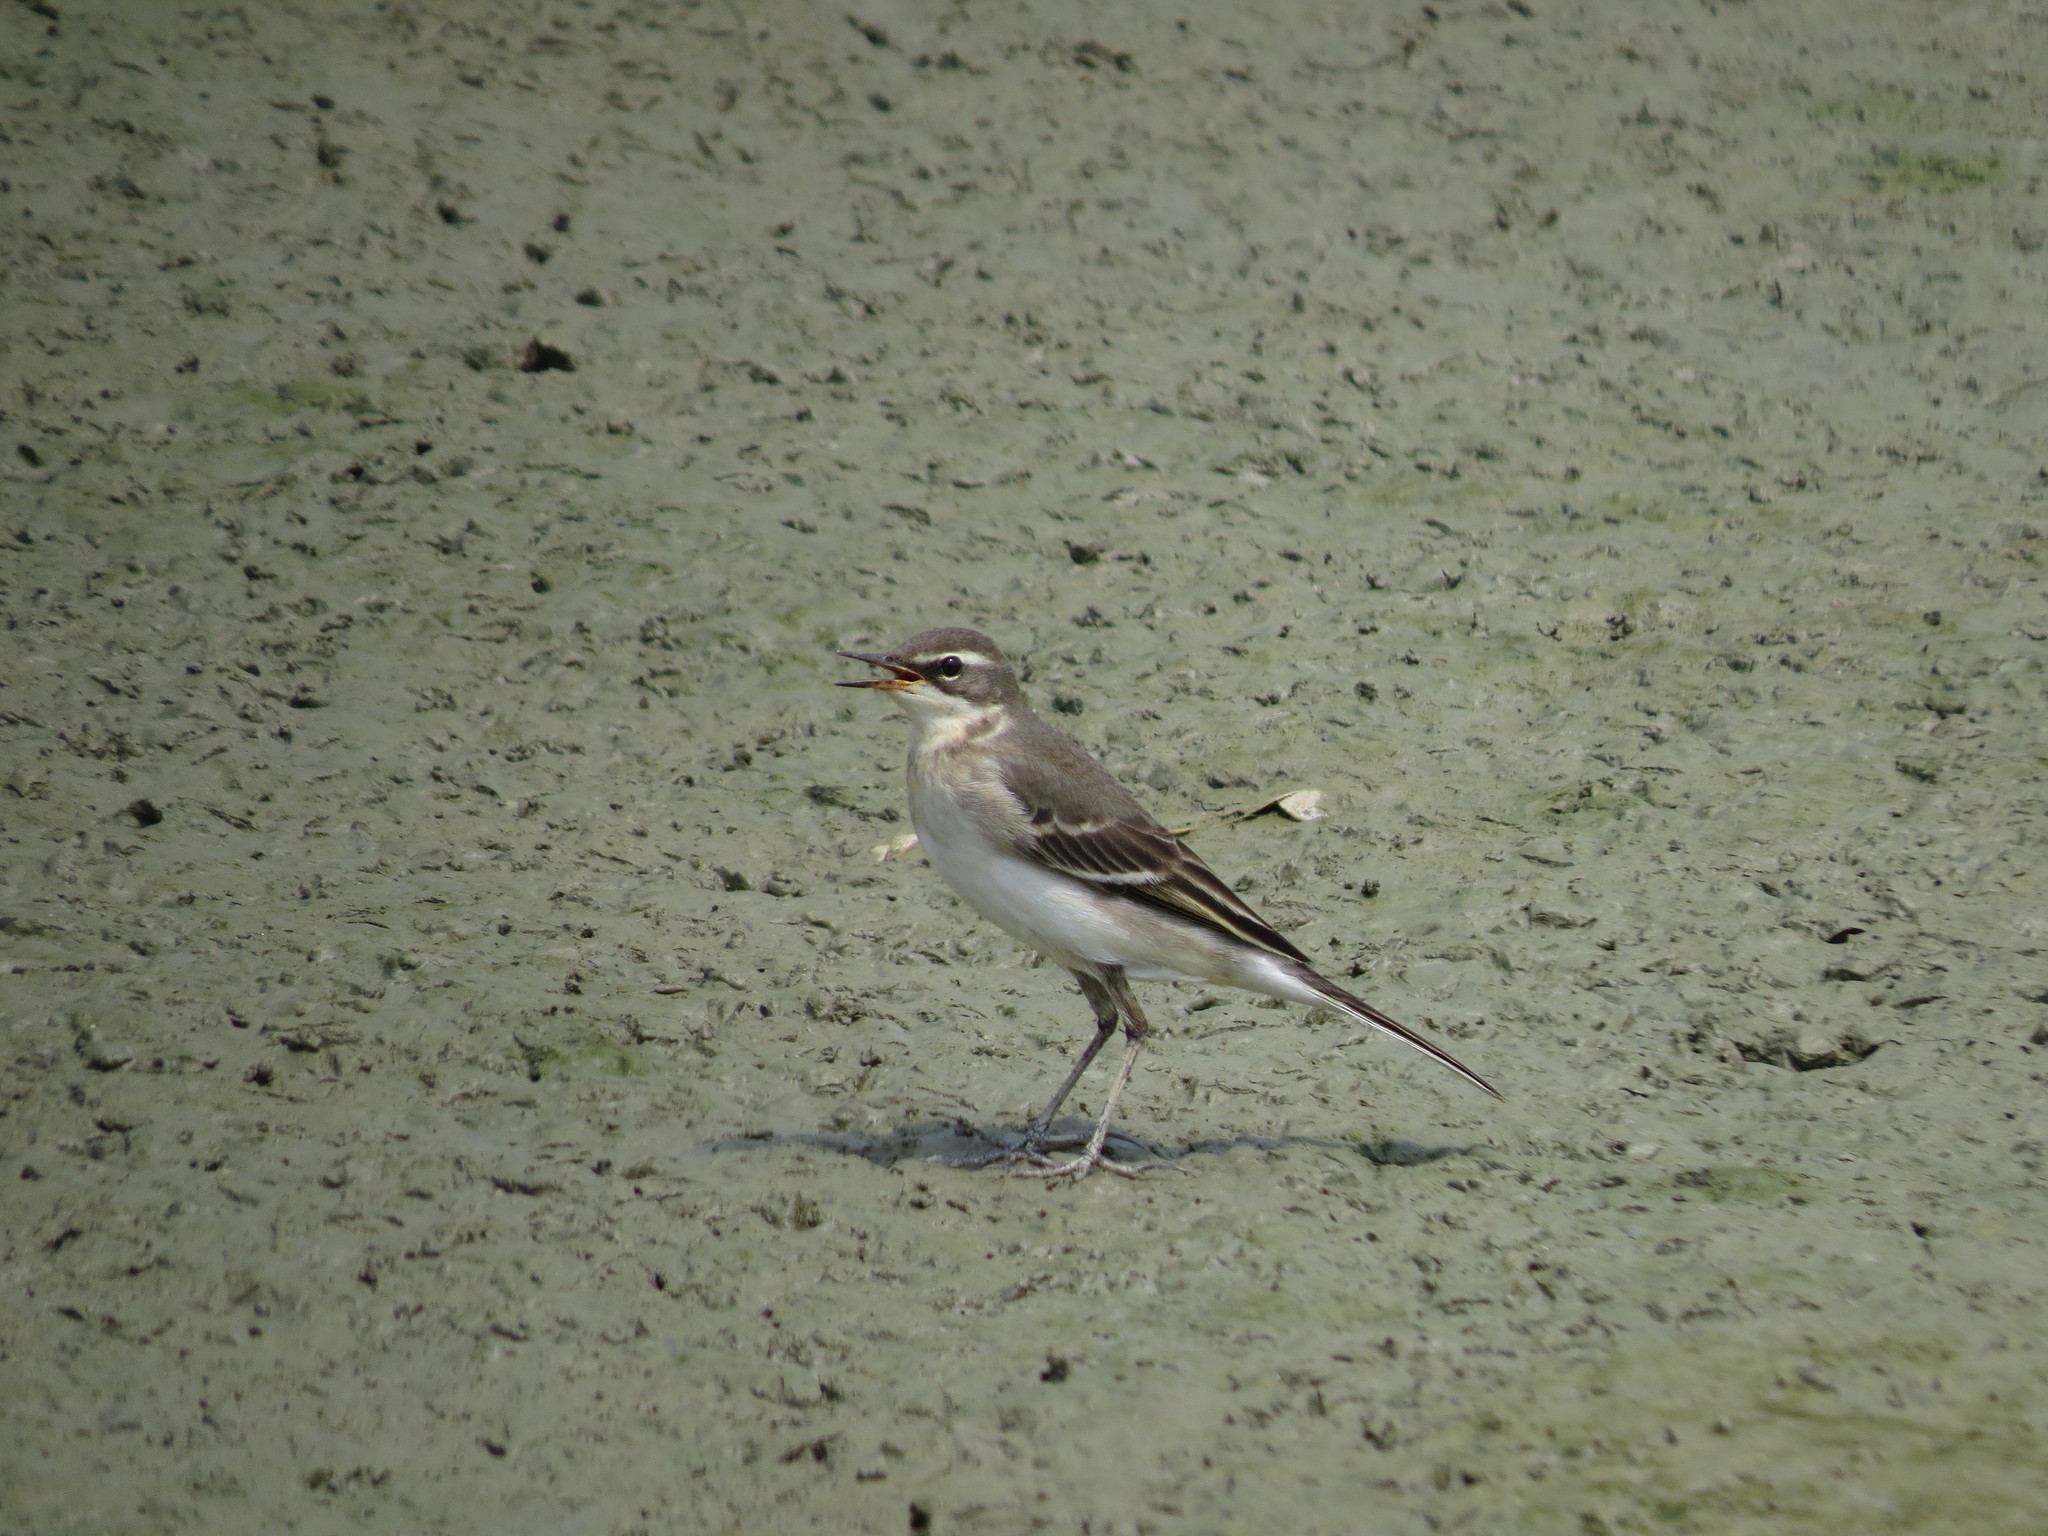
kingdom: Animalia
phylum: Chordata
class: Aves
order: Passeriformes
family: Motacillidae
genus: Motacilla
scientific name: Motacilla tschutschensis
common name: Eastern yellow wagtail
